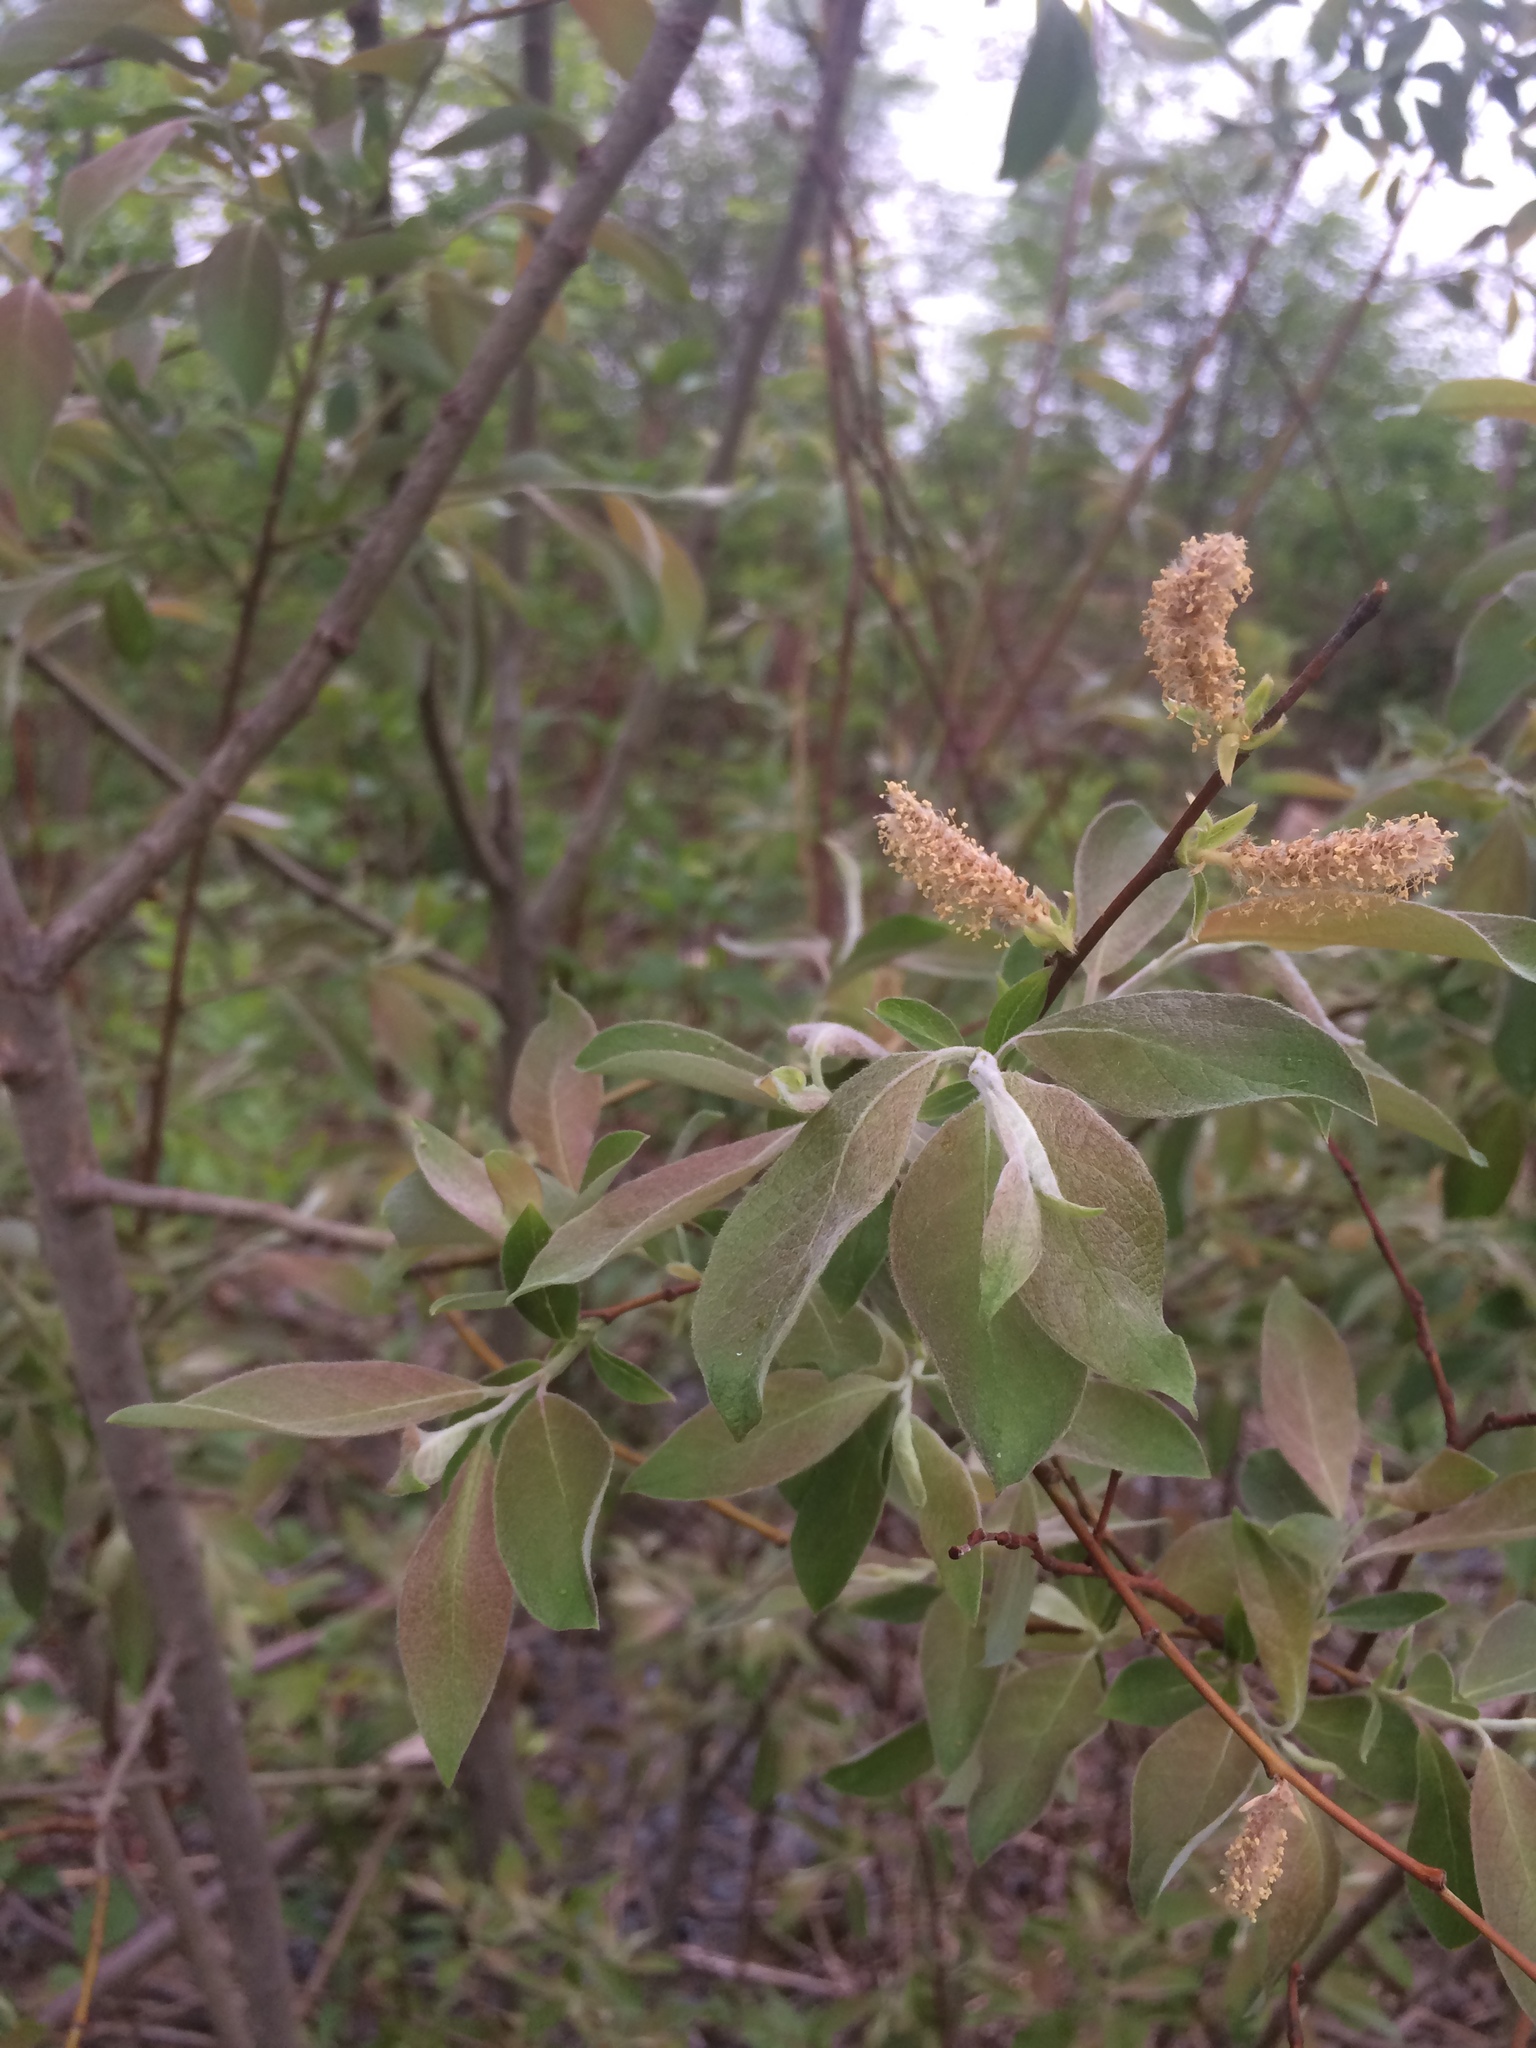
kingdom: Plantae
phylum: Tracheophyta
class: Magnoliopsida
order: Malpighiales
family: Salicaceae
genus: Salix
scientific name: Salix bebbiana
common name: Bebb's willow
